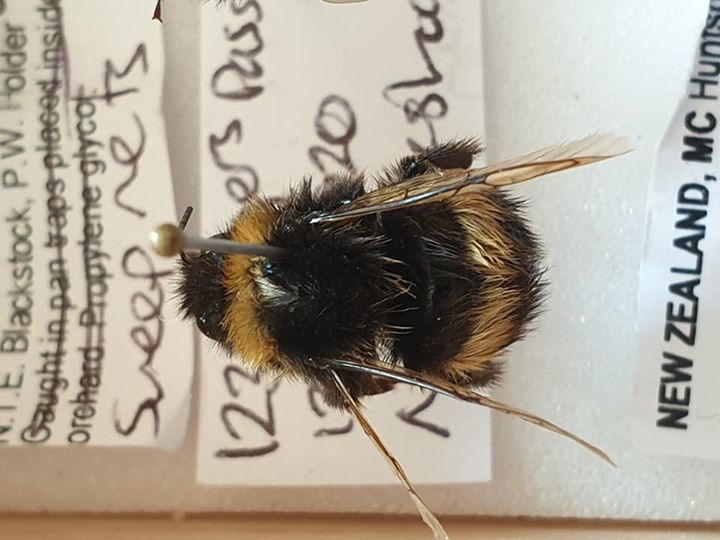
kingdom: Animalia
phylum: Arthropoda
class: Insecta
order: Hymenoptera
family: Apidae
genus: Bombus
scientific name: Bombus terrestris
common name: Buff-tailed bumblebee
